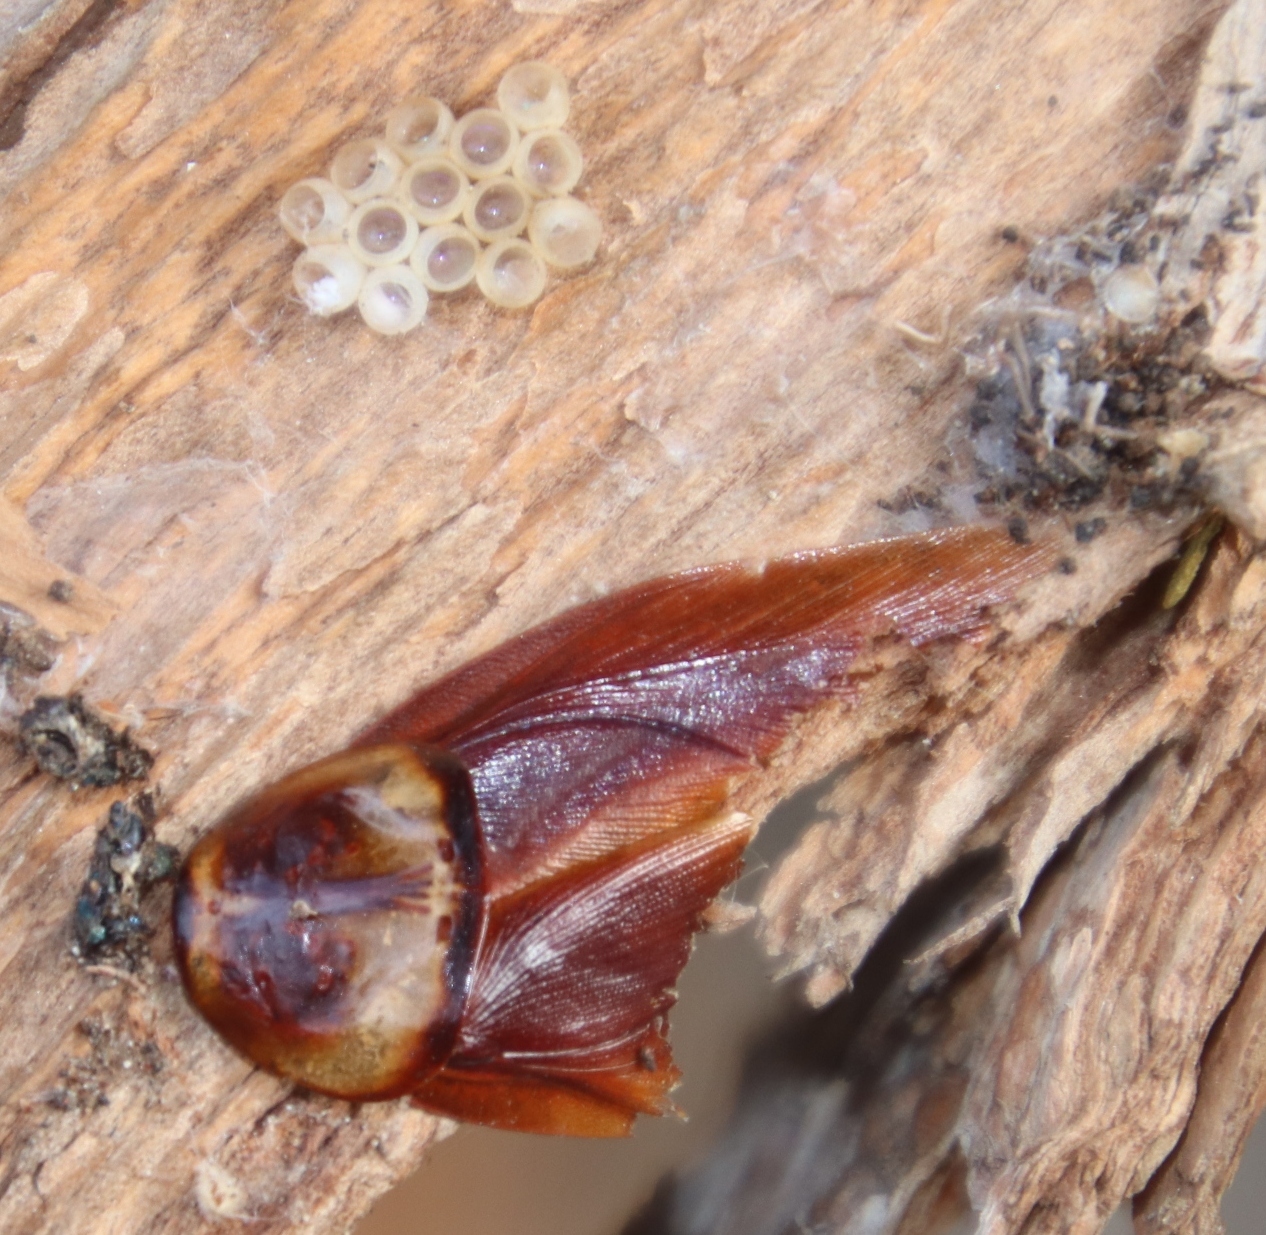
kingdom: Animalia
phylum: Arthropoda
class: Insecta
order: Blattodea
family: Blattidae
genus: Periplaneta
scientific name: Periplaneta americana
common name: American cockroach
